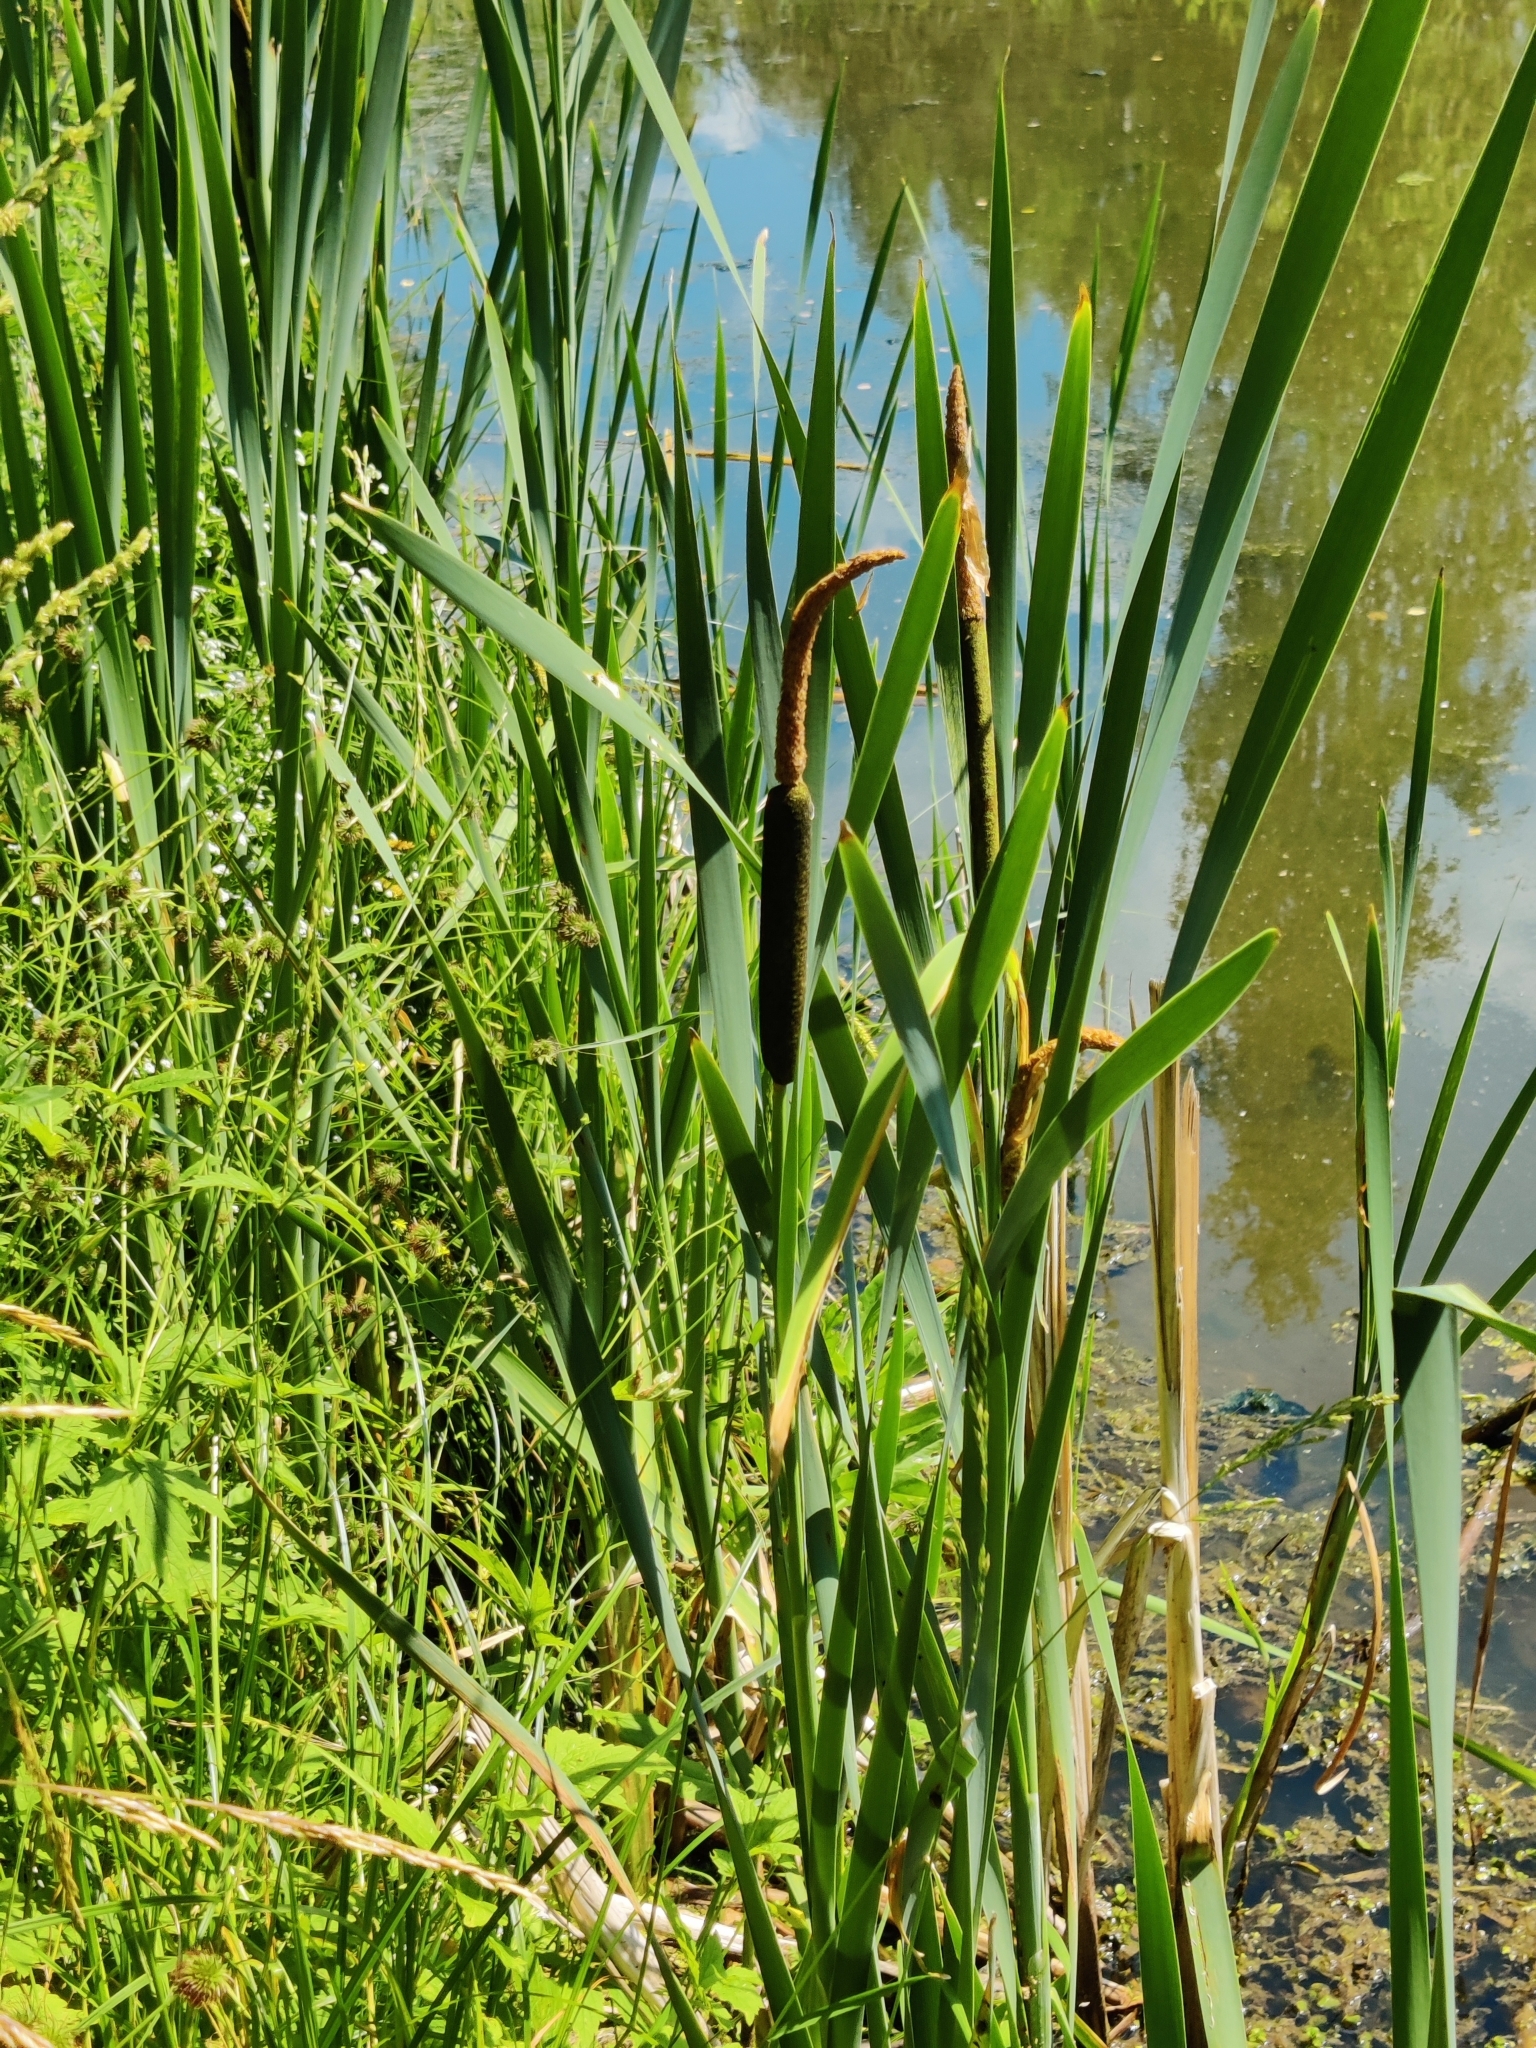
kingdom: Plantae
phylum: Tracheophyta
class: Liliopsida
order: Poales
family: Typhaceae
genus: Typha
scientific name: Typha latifolia
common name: Broadleaf cattail
